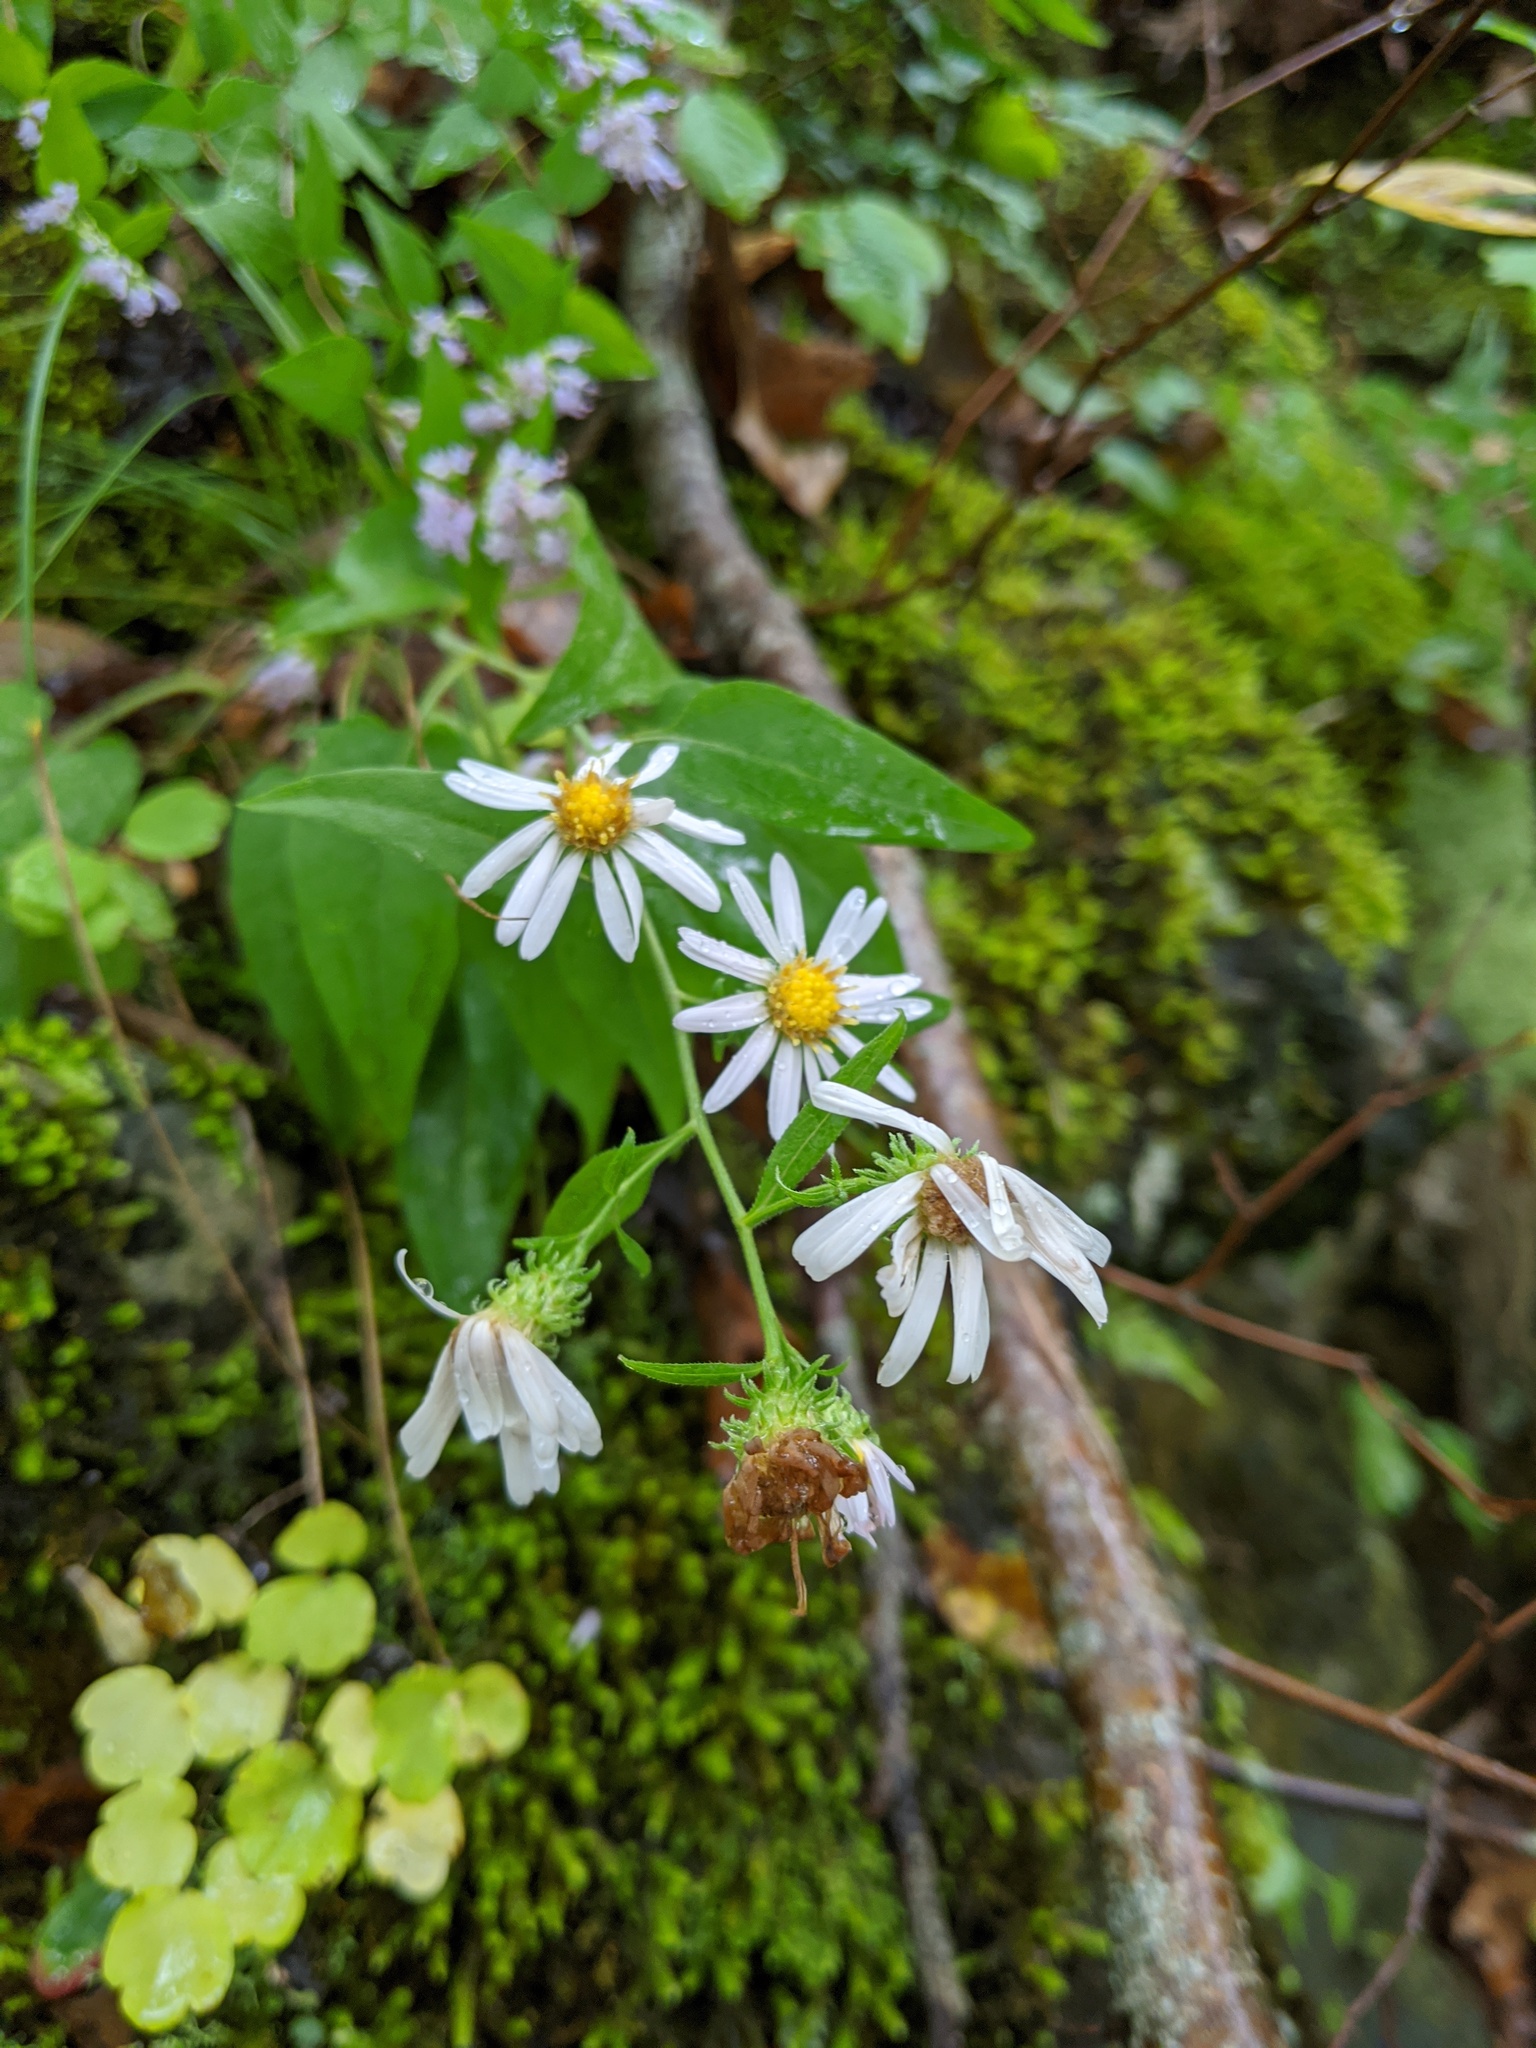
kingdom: Plantae
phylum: Tracheophyta
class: Magnoliopsida
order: Asterales
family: Asteraceae
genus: Symphyotrichum
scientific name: Symphyotrichum anomalum
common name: Many-ray aster
